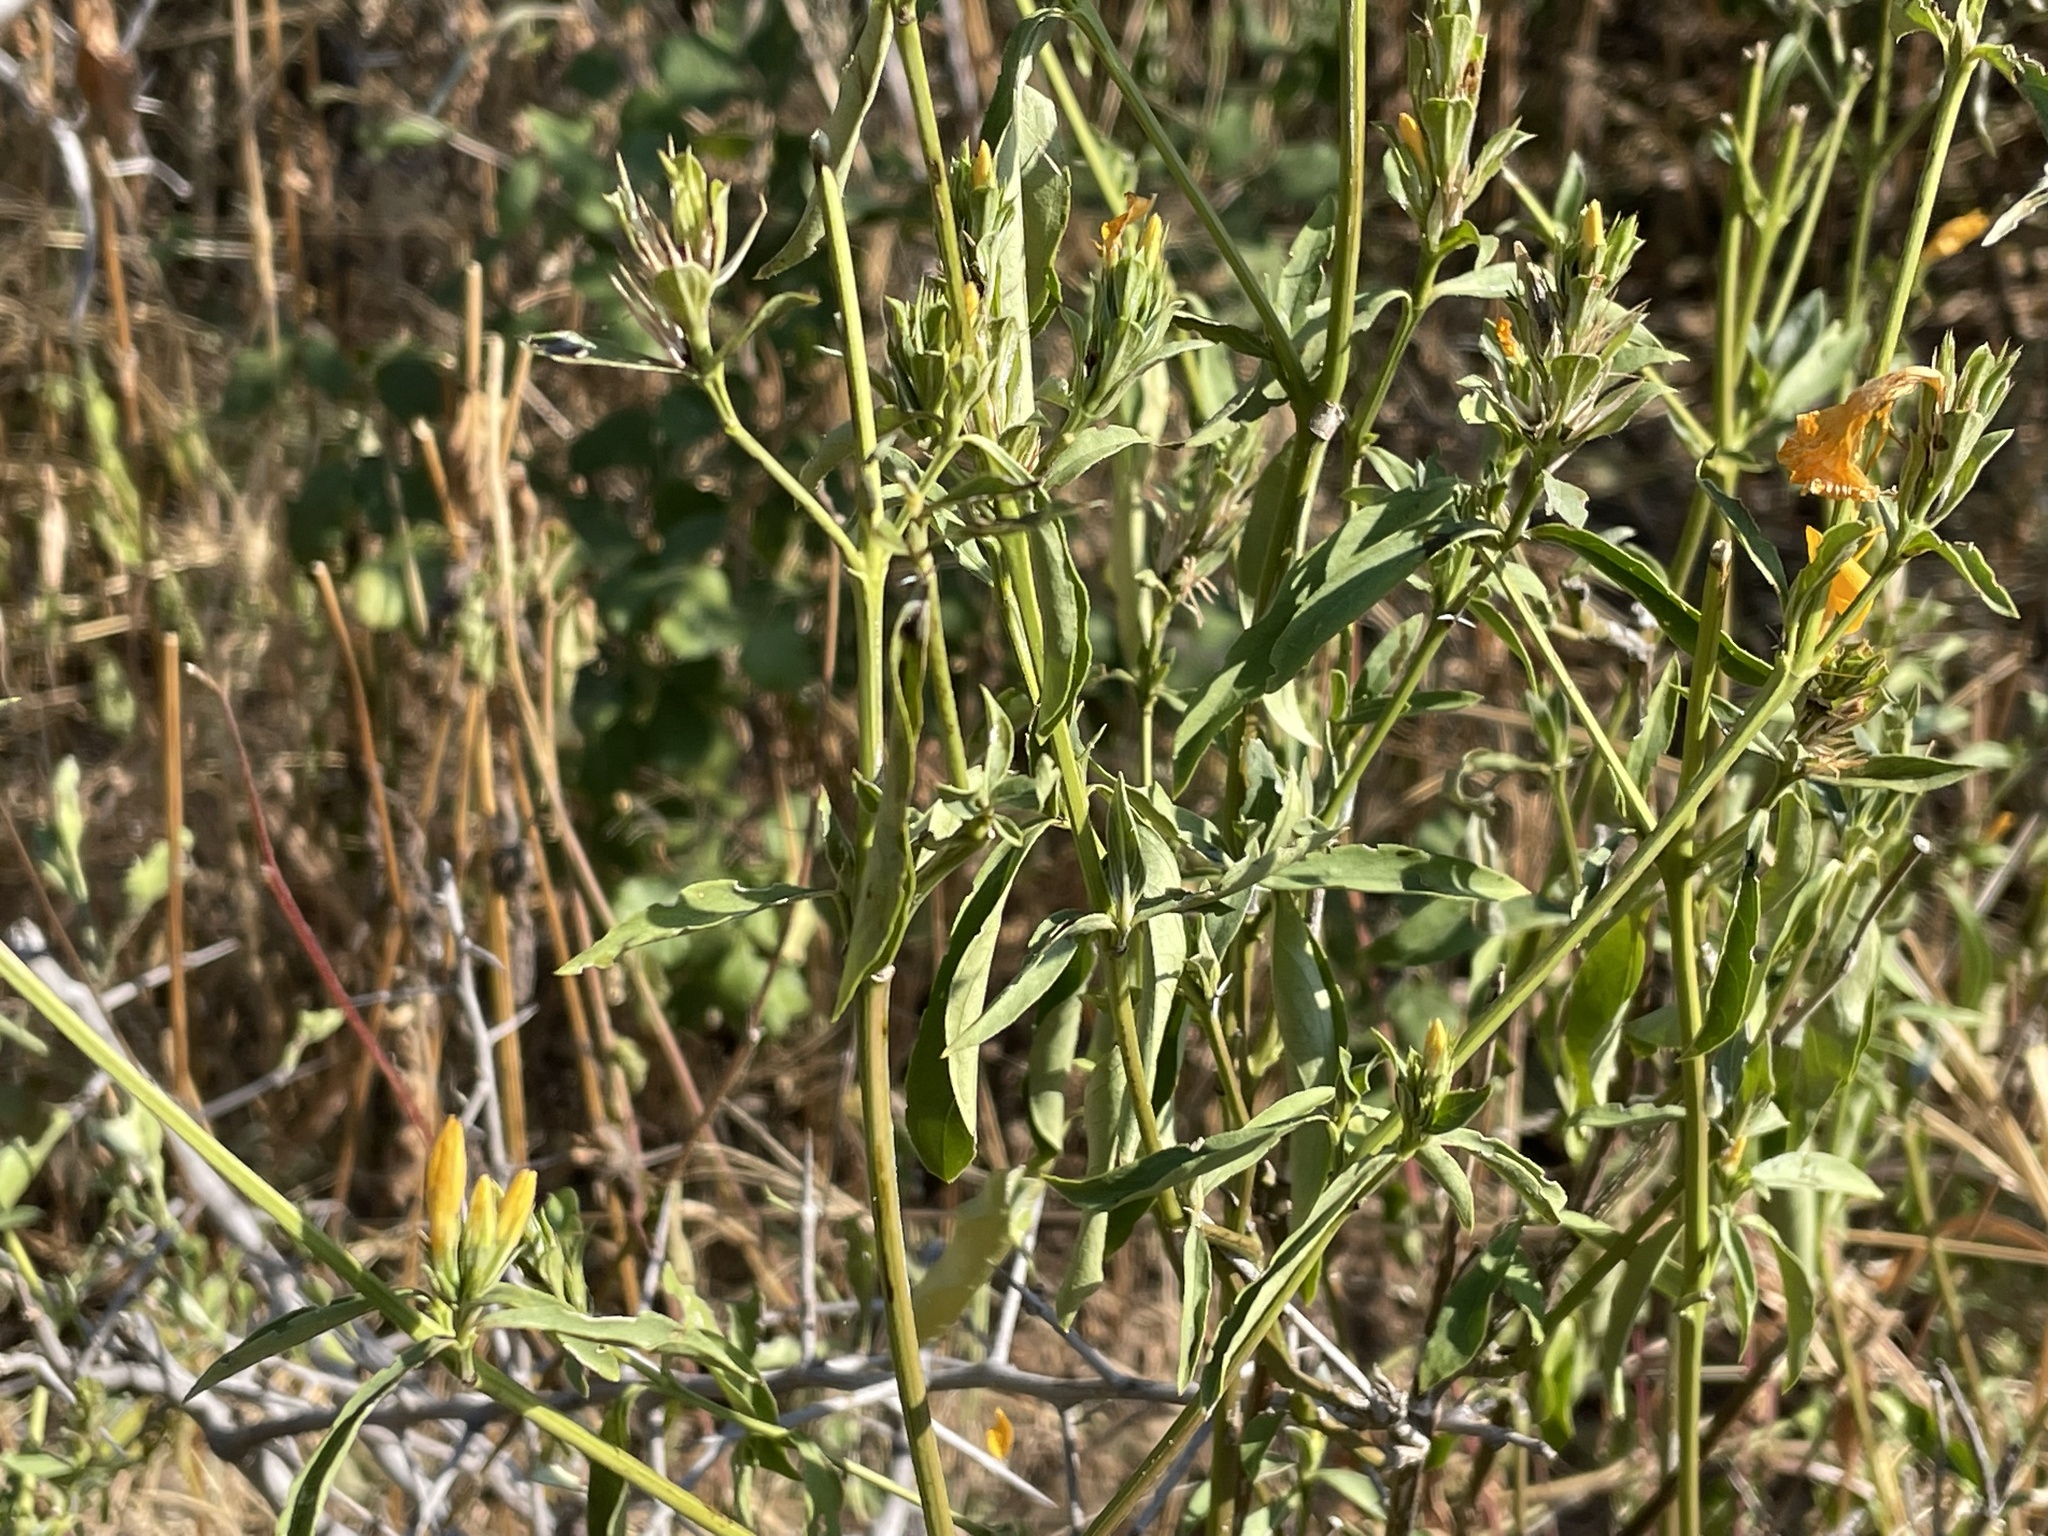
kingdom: Plantae
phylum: Tracheophyta
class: Magnoliopsida
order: Lamiales
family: Acanthaceae
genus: Barleria
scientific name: Barleria senensis
